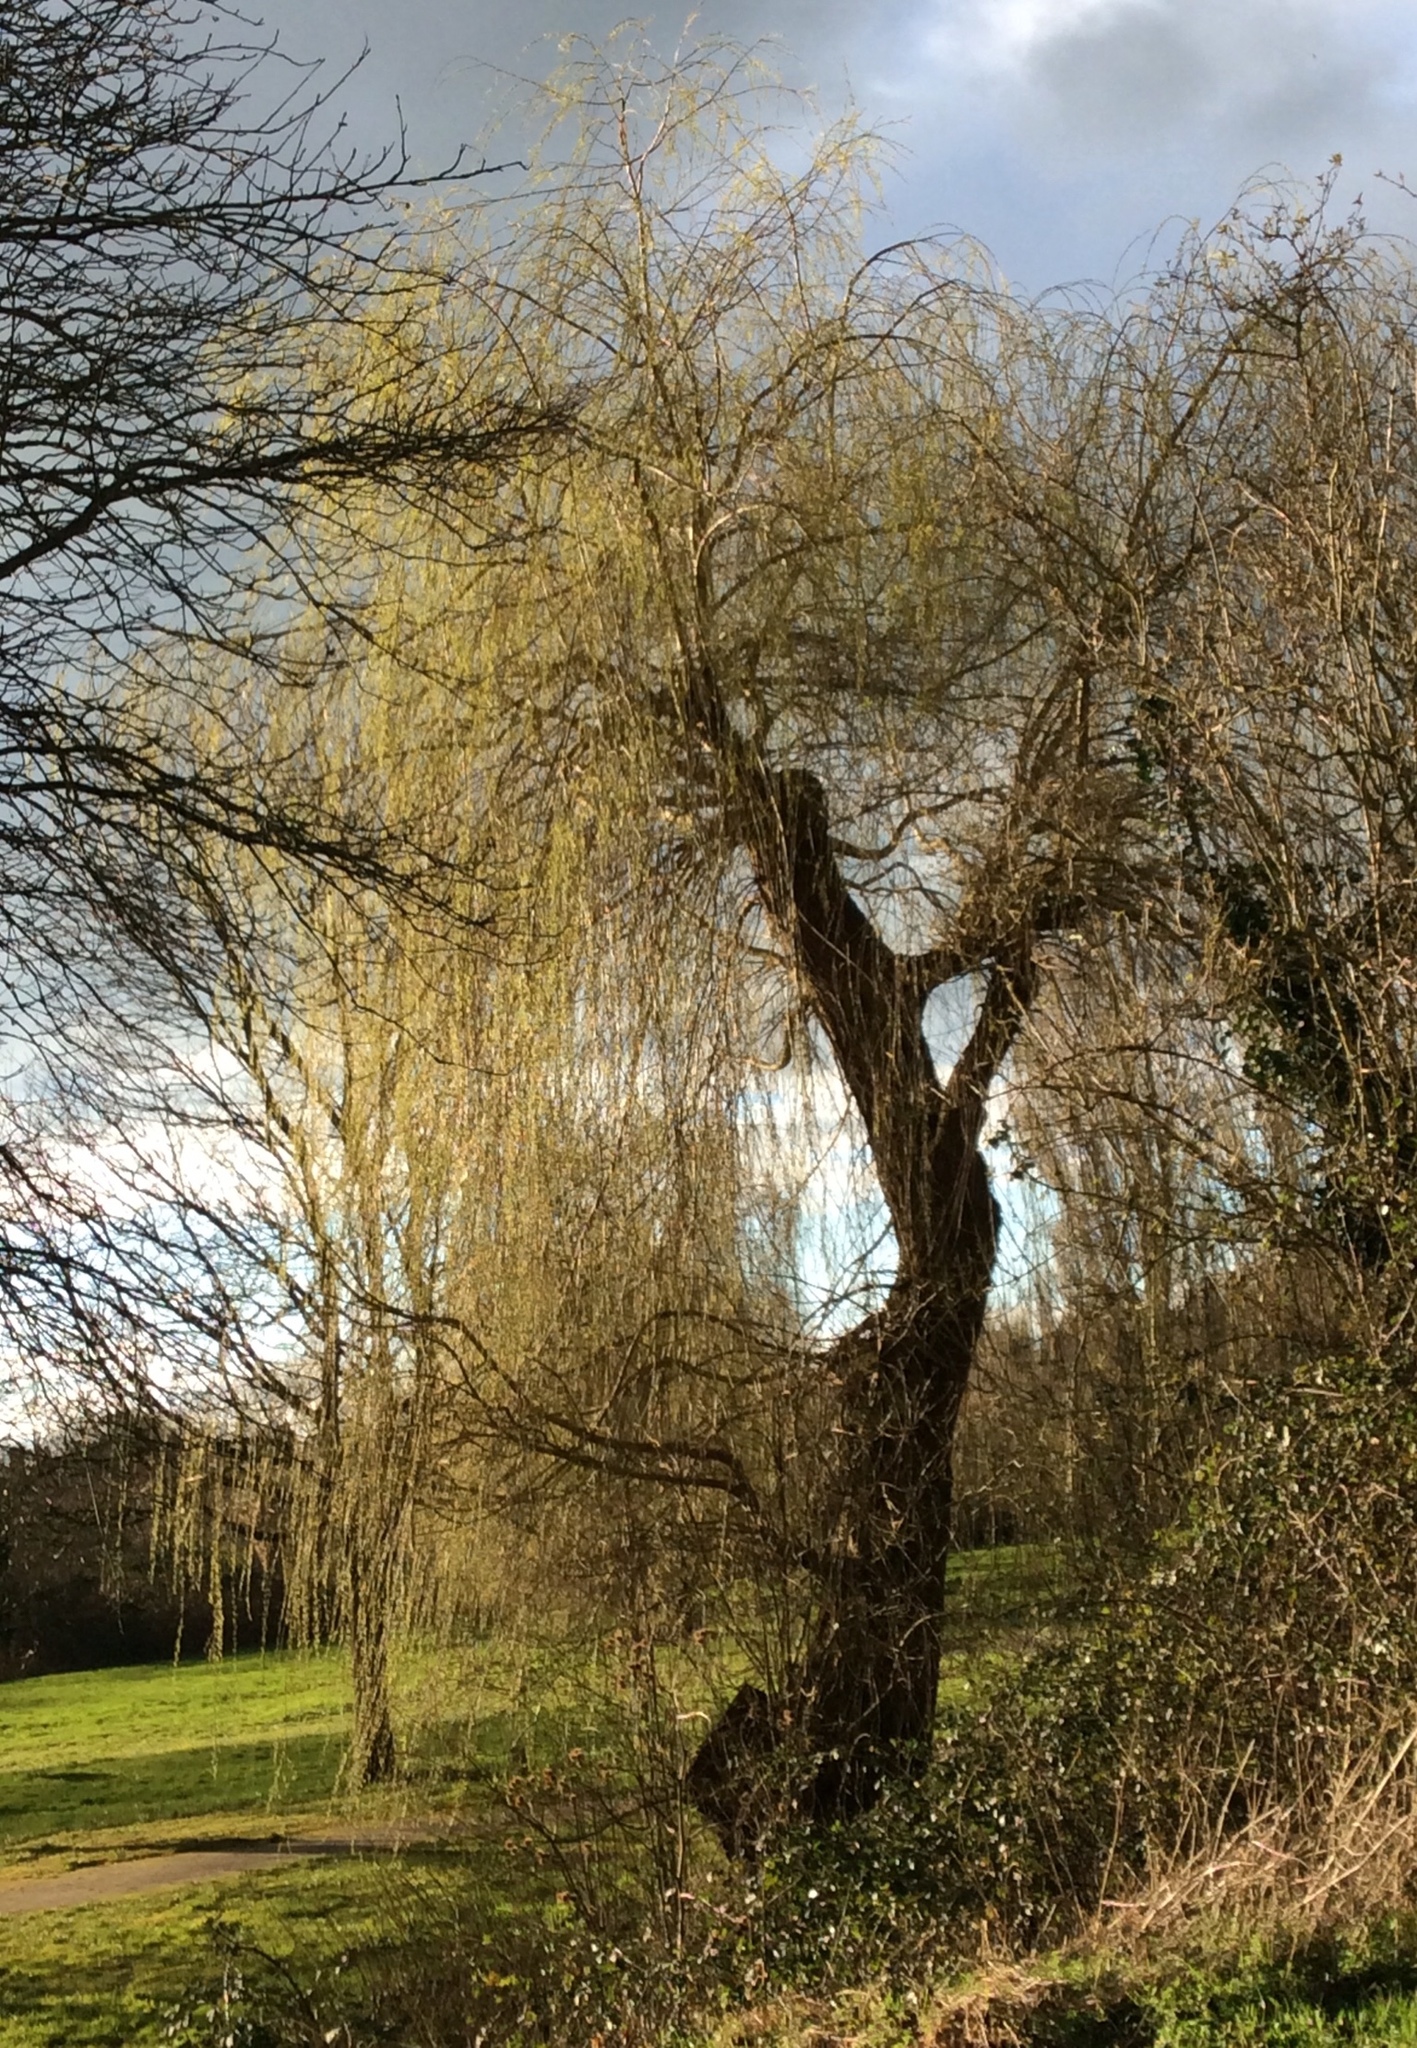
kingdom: Plantae
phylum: Tracheophyta
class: Magnoliopsida
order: Malpighiales
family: Salicaceae
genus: Salix
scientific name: Salix pendulina
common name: Wisconsin weeping willow
